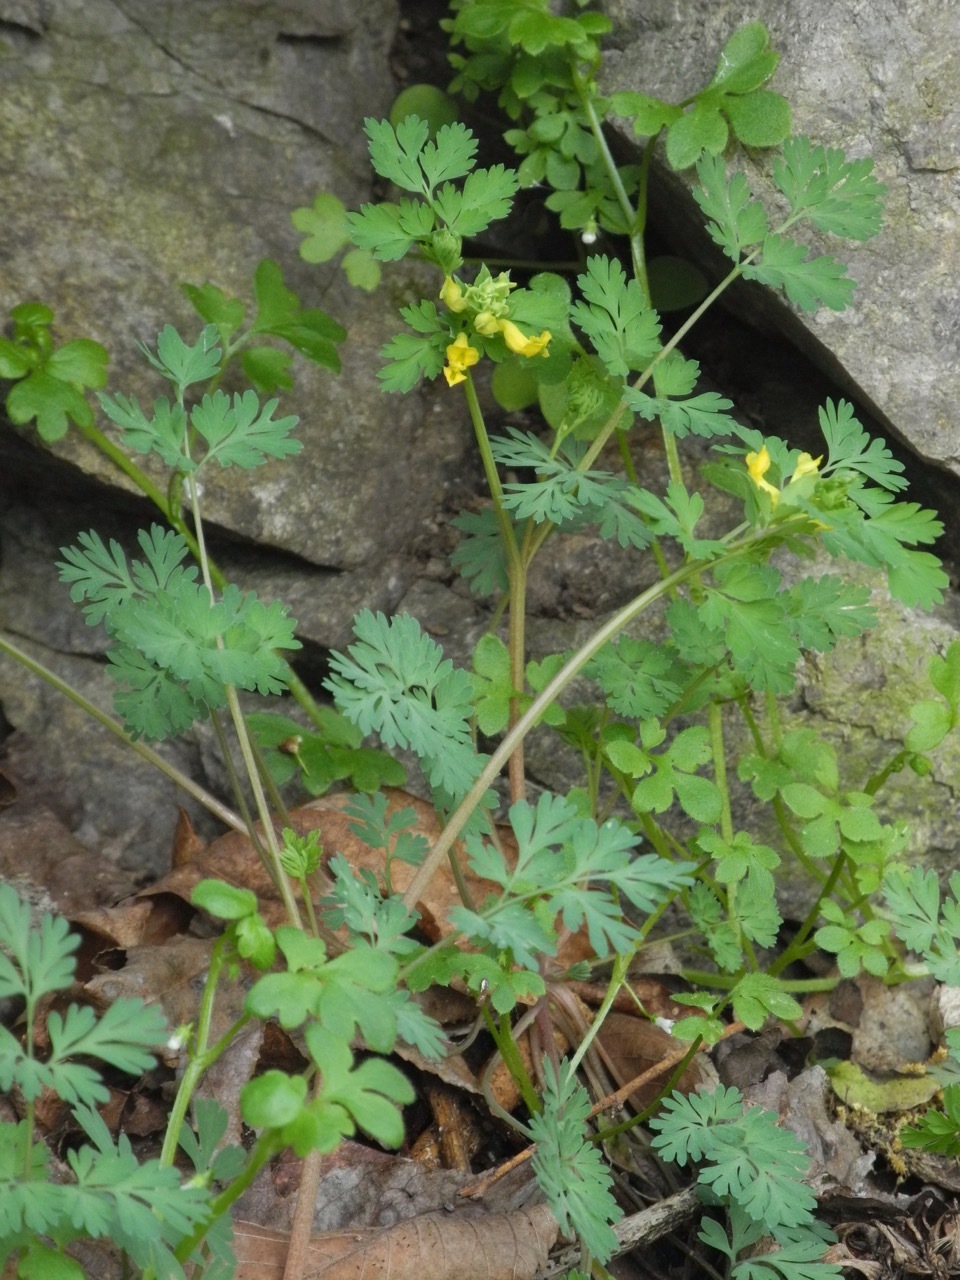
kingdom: Plantae
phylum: Tracheophyta
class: Magnoliopsida
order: Ranunculales
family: Papaveraceae
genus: Corydalis
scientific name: Corydalis flavula
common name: Yellow corydalis
